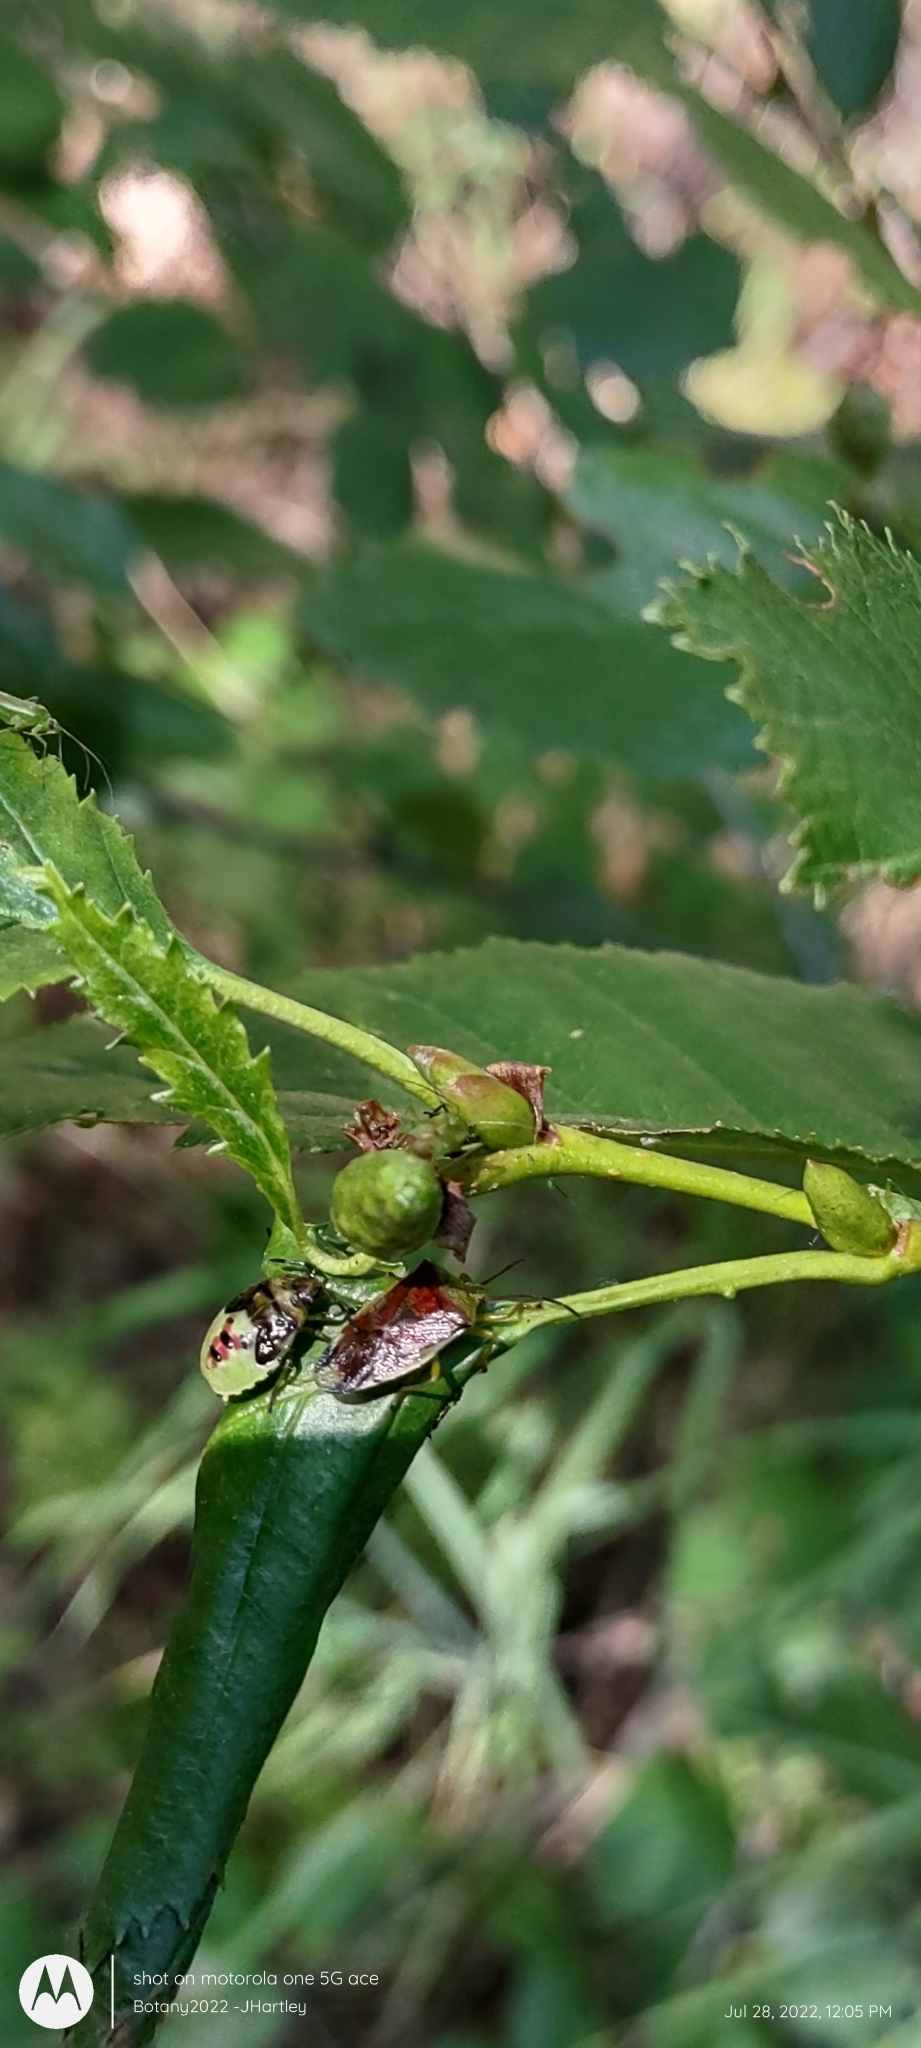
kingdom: Animalia
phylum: Arthropoda
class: Insecta
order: Hemiptera
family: Acanthosomatidae
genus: Elasmostethus
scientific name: Elasmostethus interstinctus
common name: Birch shieldbug
